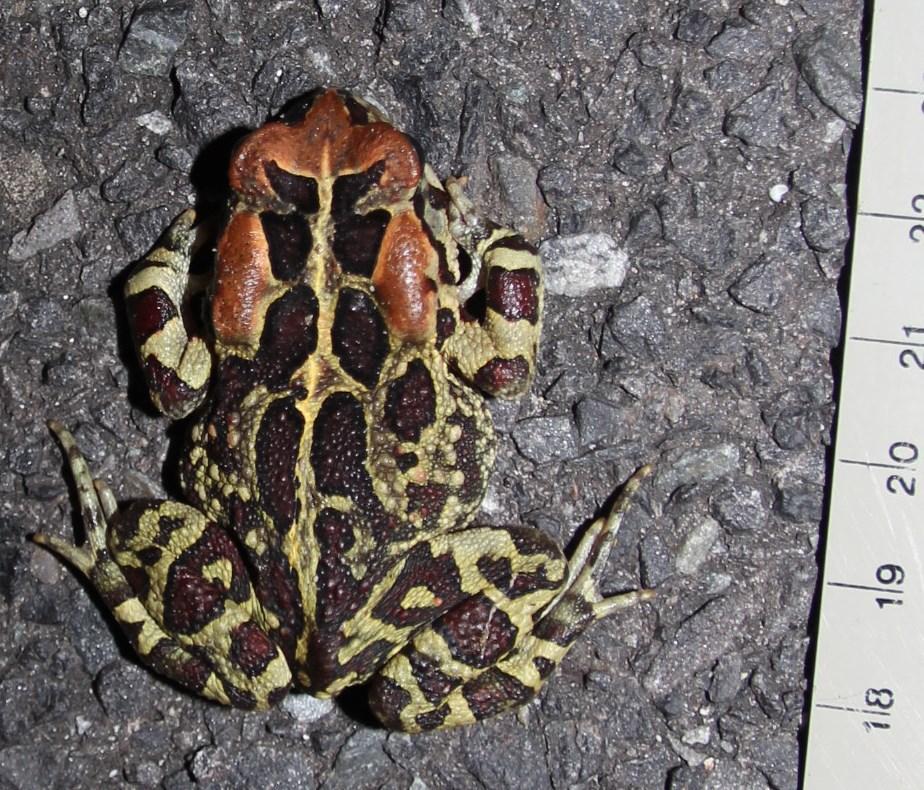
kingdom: Animalia
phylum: Chordata
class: Amphibia
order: Anura
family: Bufonidae
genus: Sclerophrys
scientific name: Sclerophrys pantherina
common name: Panther toad
